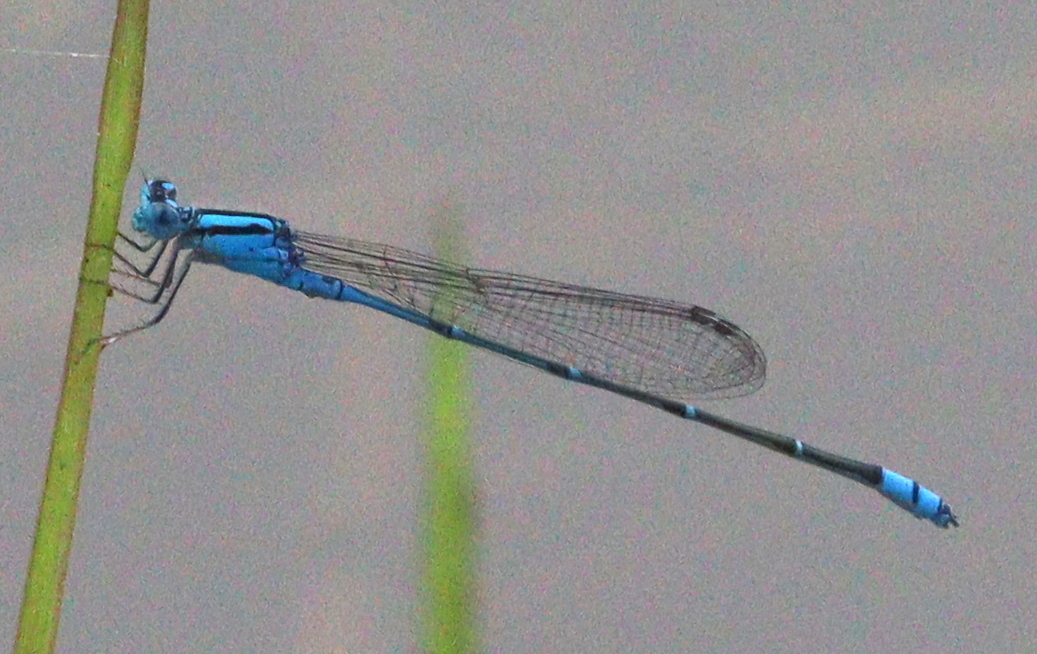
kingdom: Animalia
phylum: Arthropoda
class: Insecta
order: Odonata
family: Coenagrionidae
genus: Pseudagrion
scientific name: Pseudagrion microcephalum
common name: Blue riverdamsel
